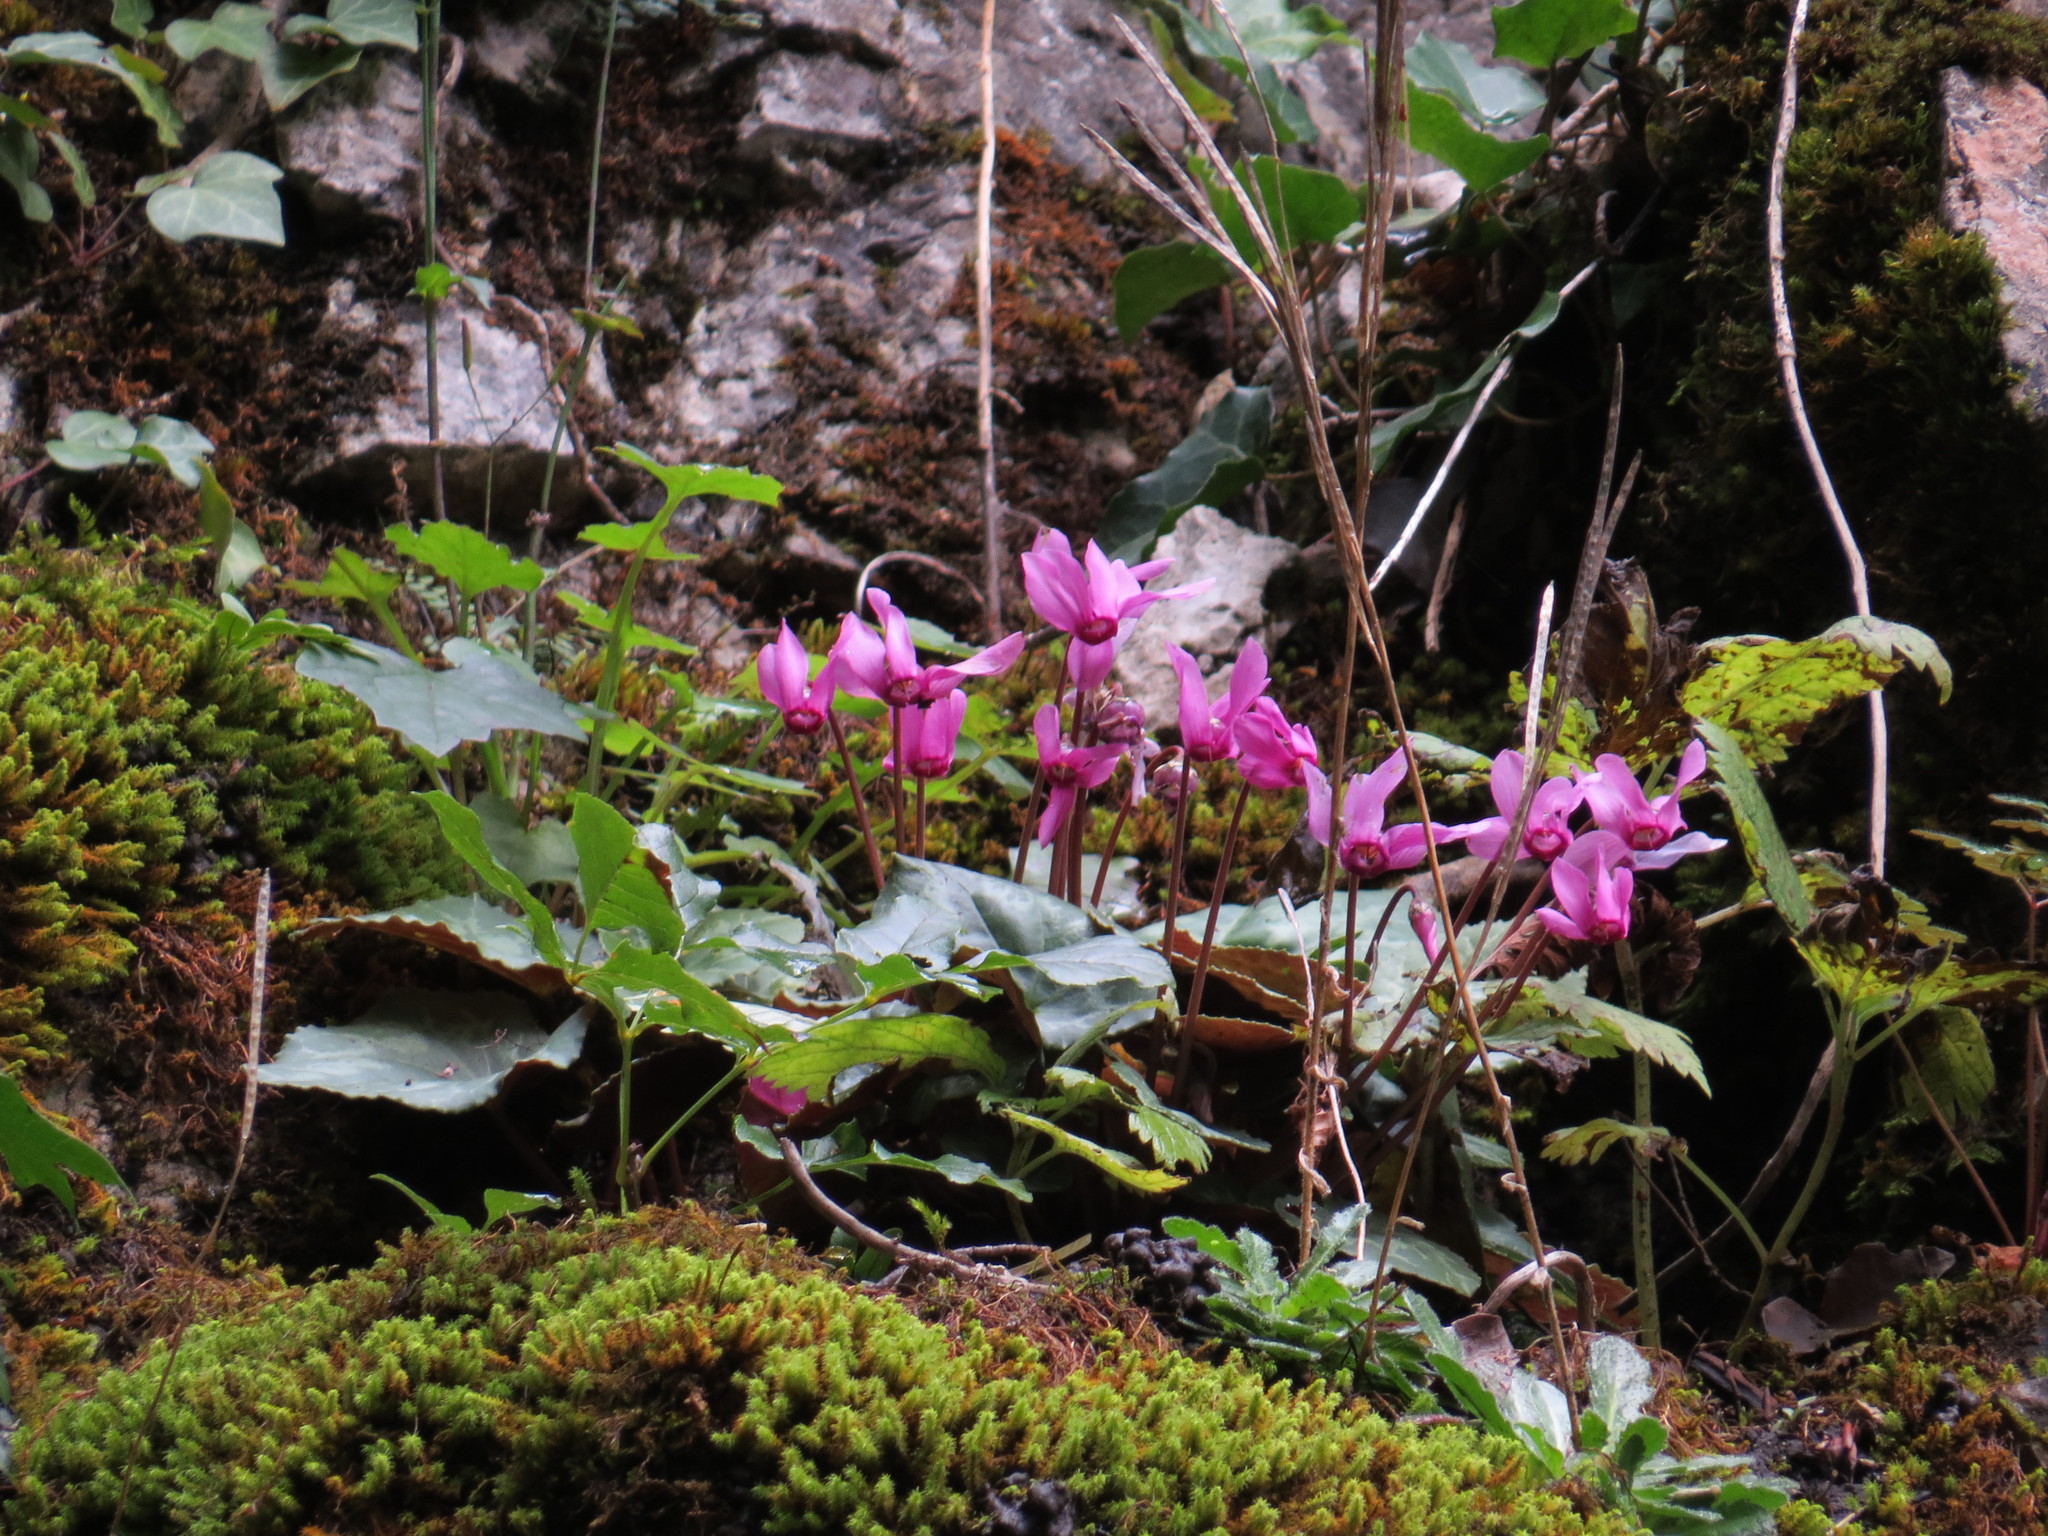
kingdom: Plantae
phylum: Tracheophyta
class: Magnoliopsida
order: Ericales
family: Primulaceae
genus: Cyclamen
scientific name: Cyclamen purpurascens
